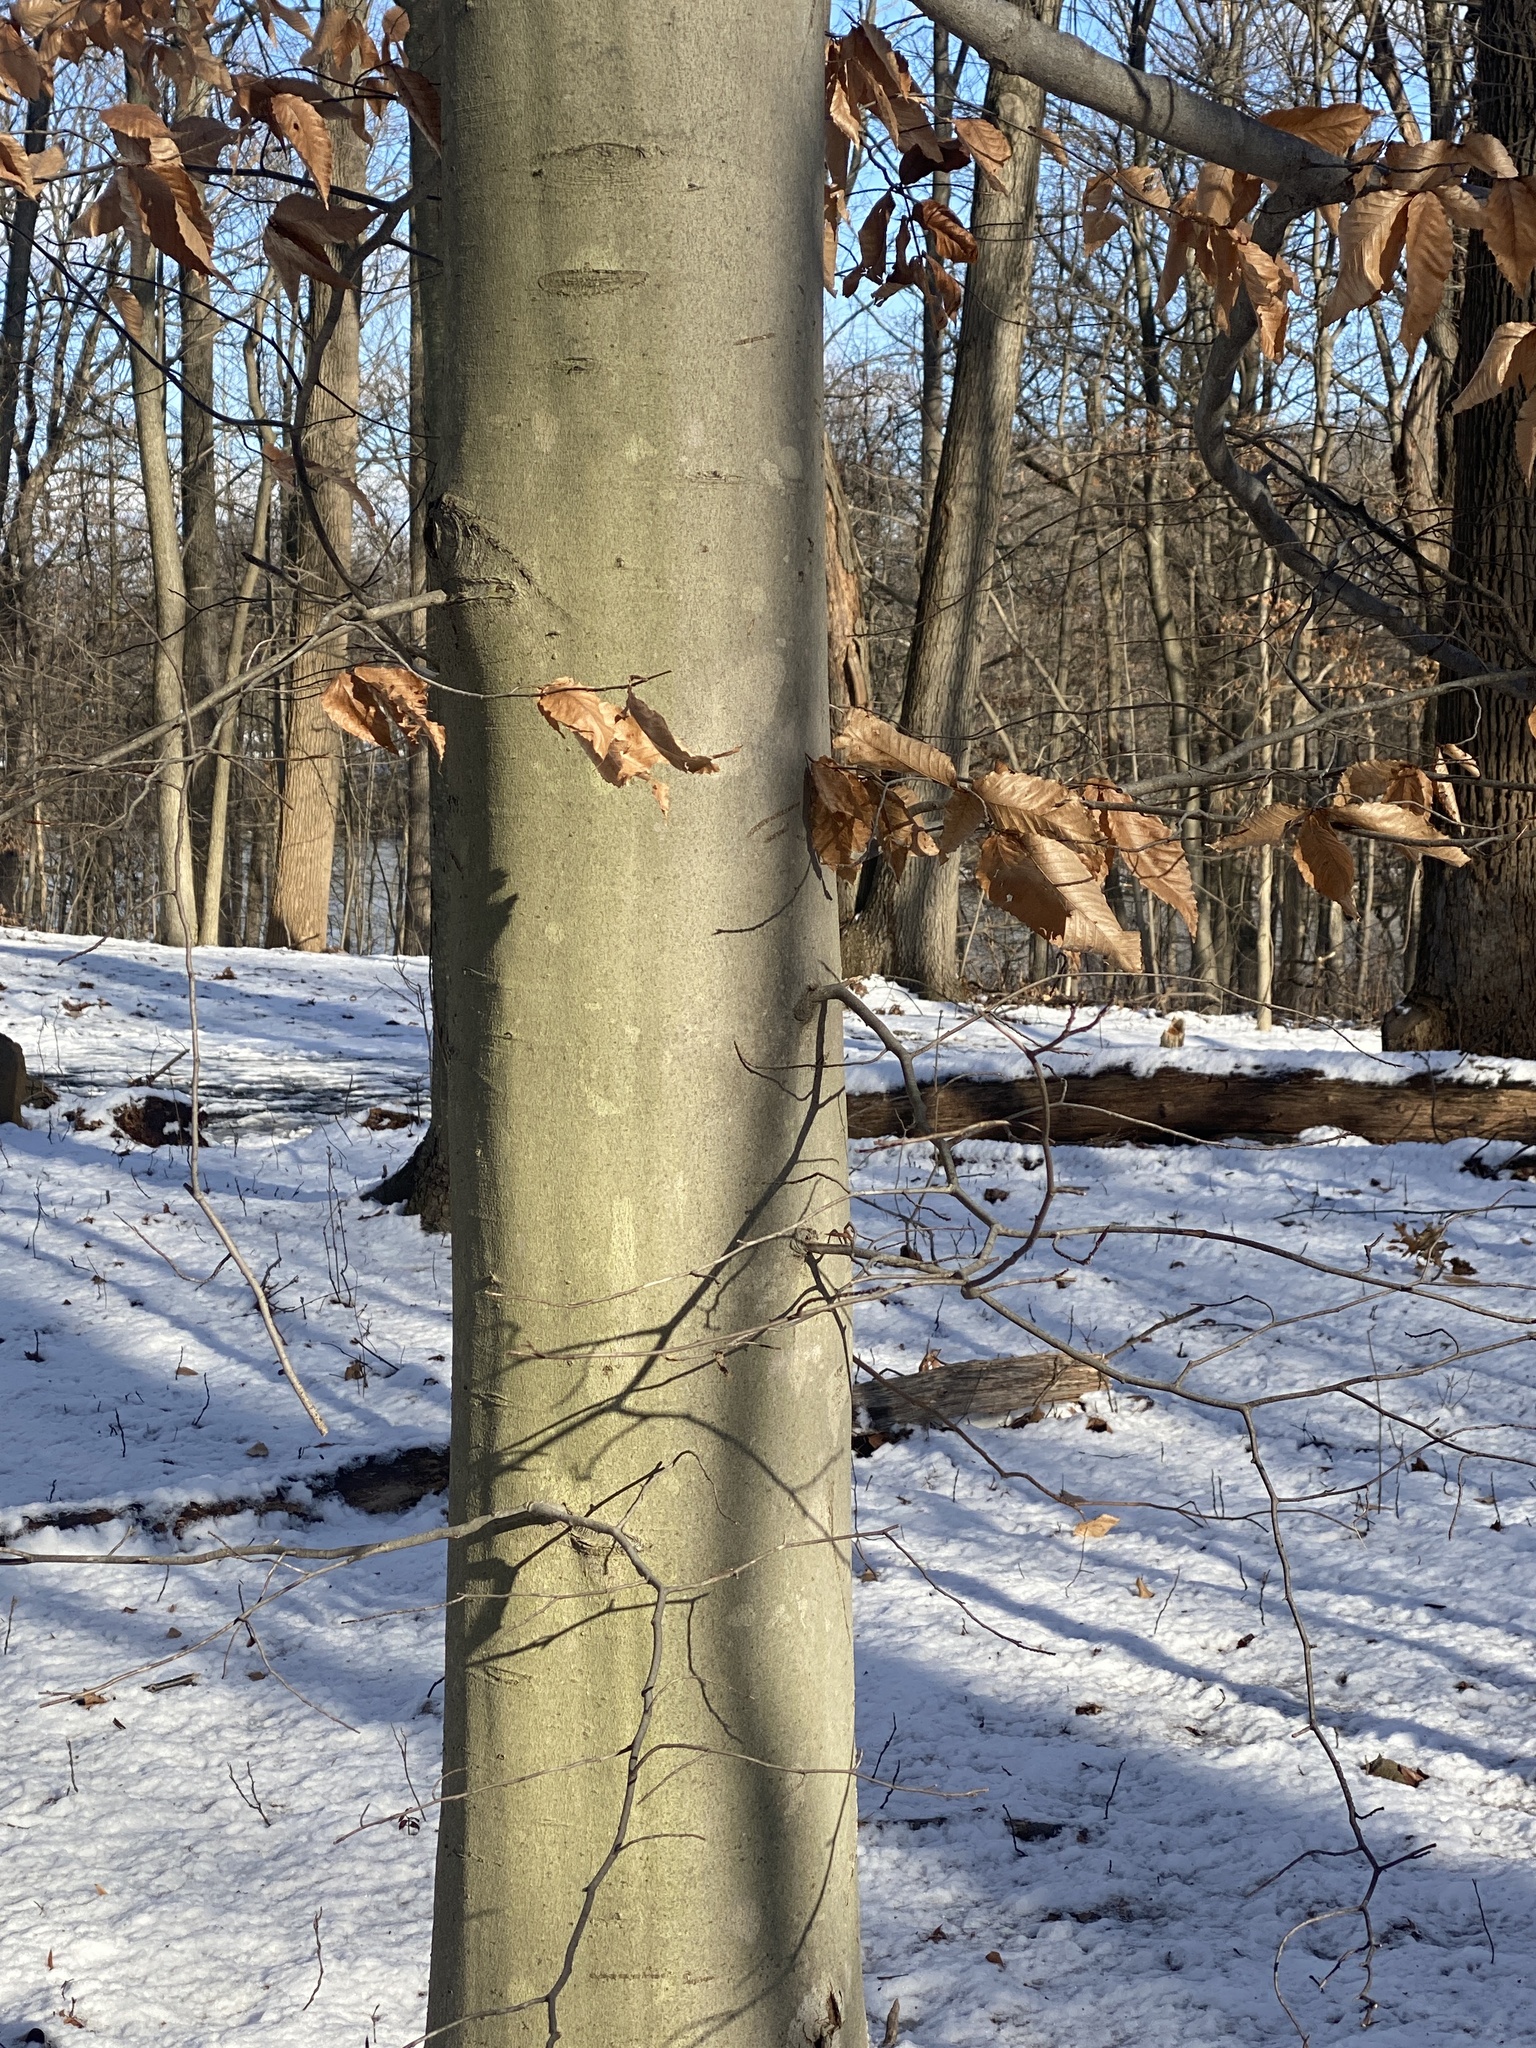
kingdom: Plantae
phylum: Tracheophyta
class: Magnoliopsida
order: Fagales
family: Fagaceae
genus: Fagus
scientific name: Fagus grandifolia
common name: American beech
